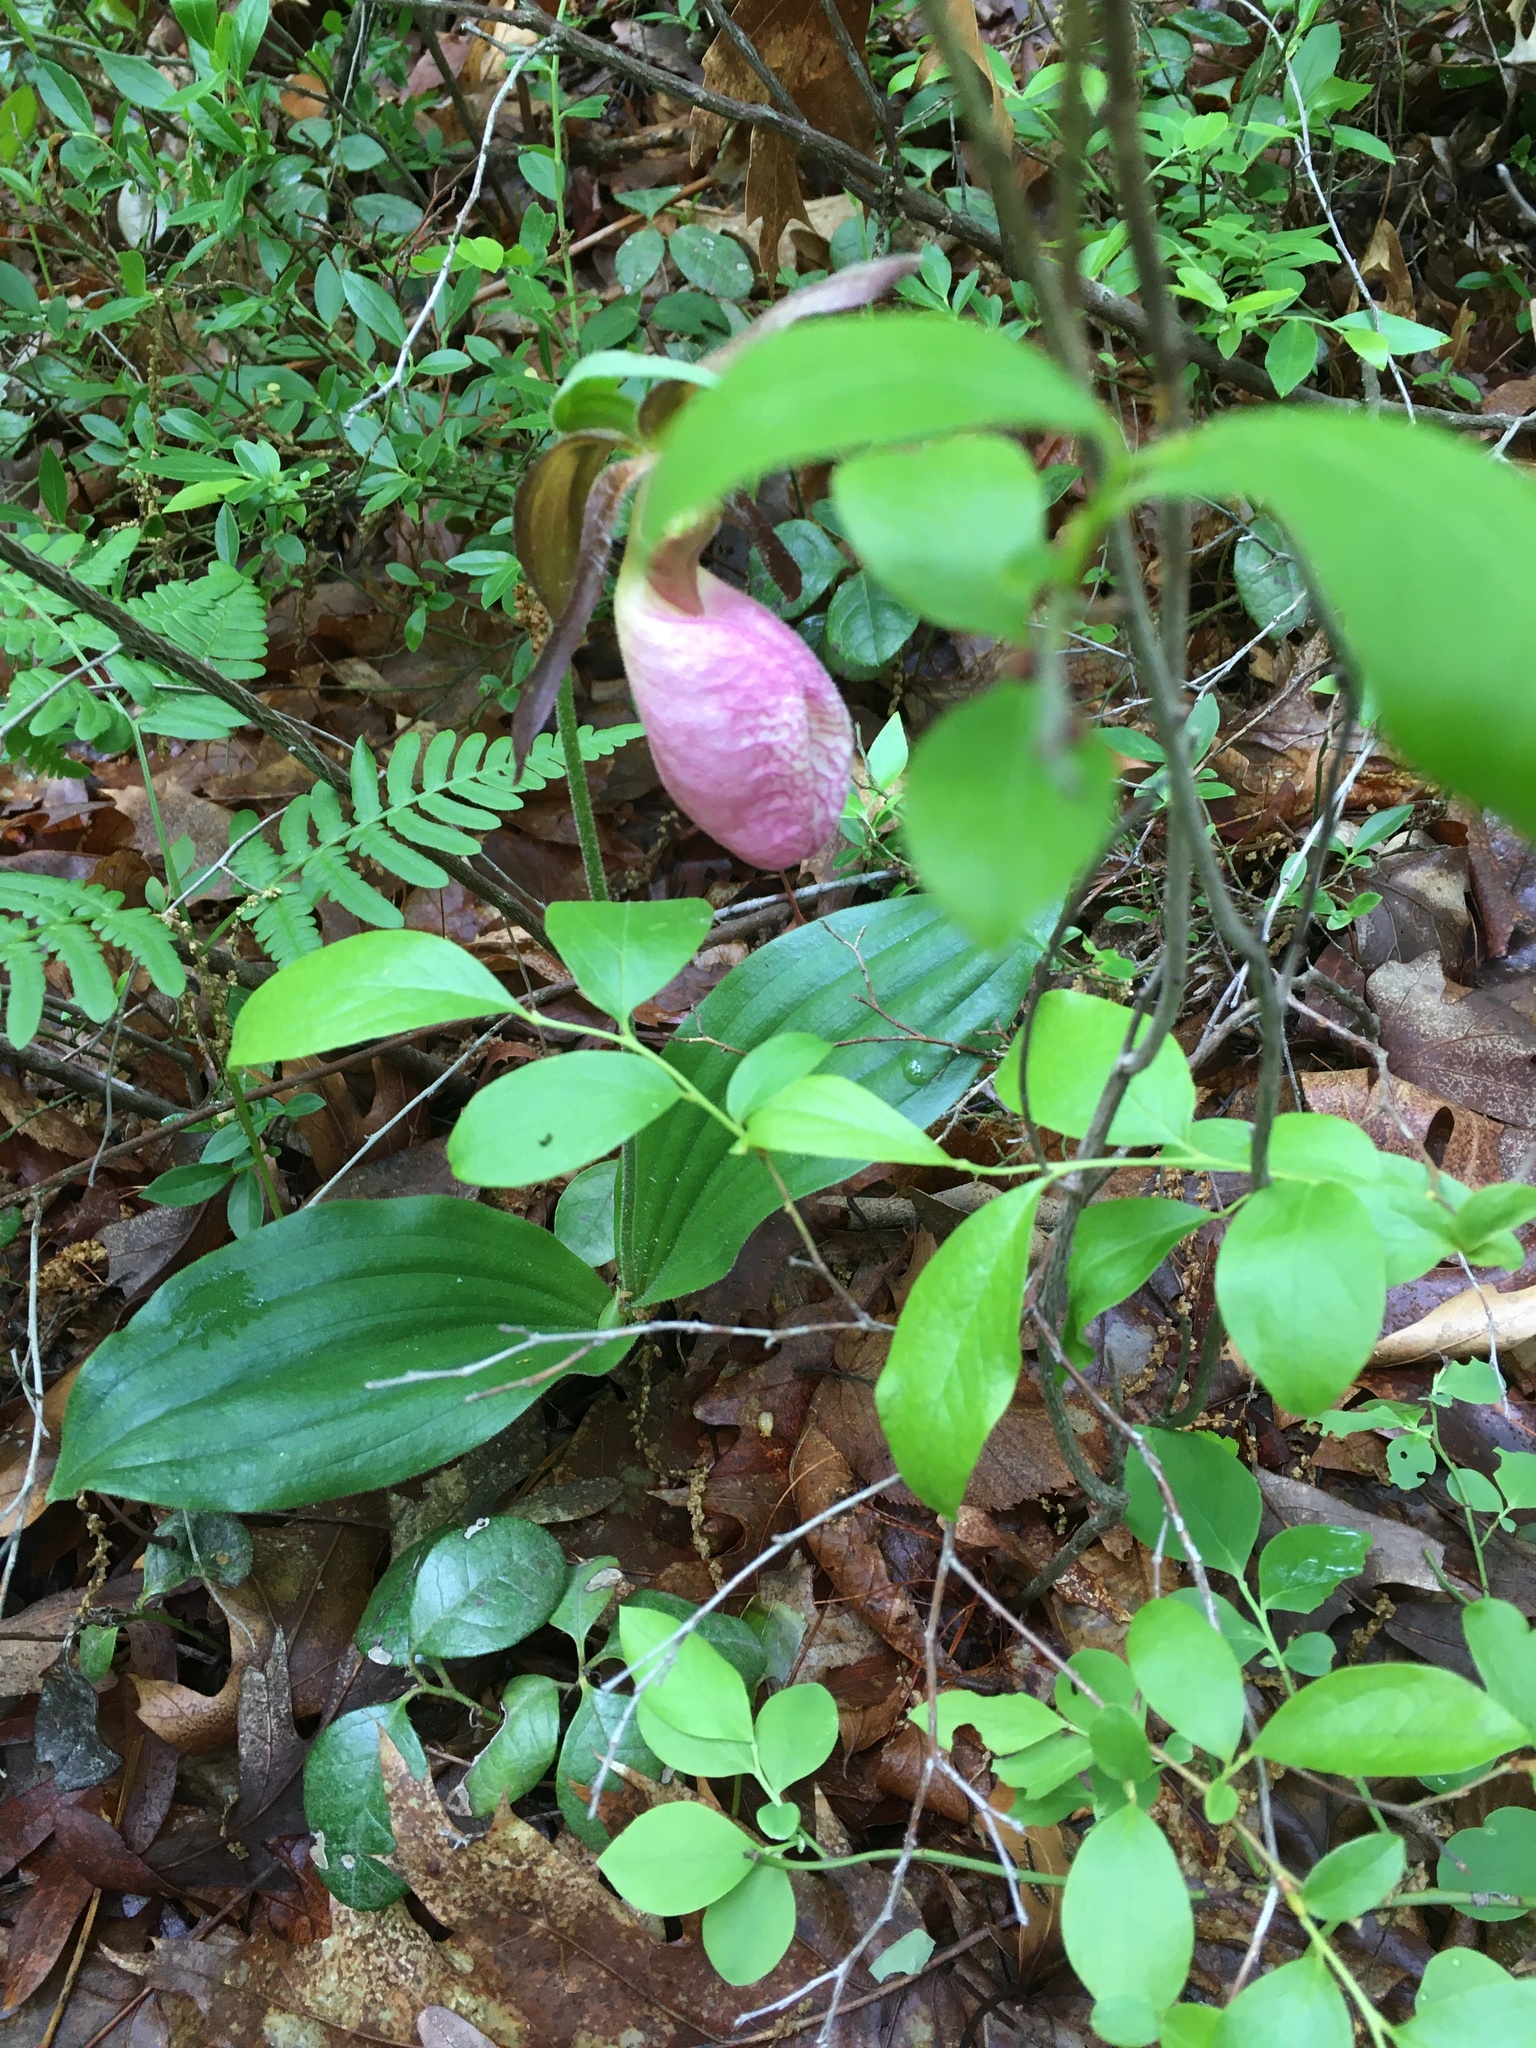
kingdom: Plantae
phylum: Tracheophyta
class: Liliopsida
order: Asparagales
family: Orchidaceae
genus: Cypripedium
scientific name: Cypripedium acaule
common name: Pink lady's-slipper
